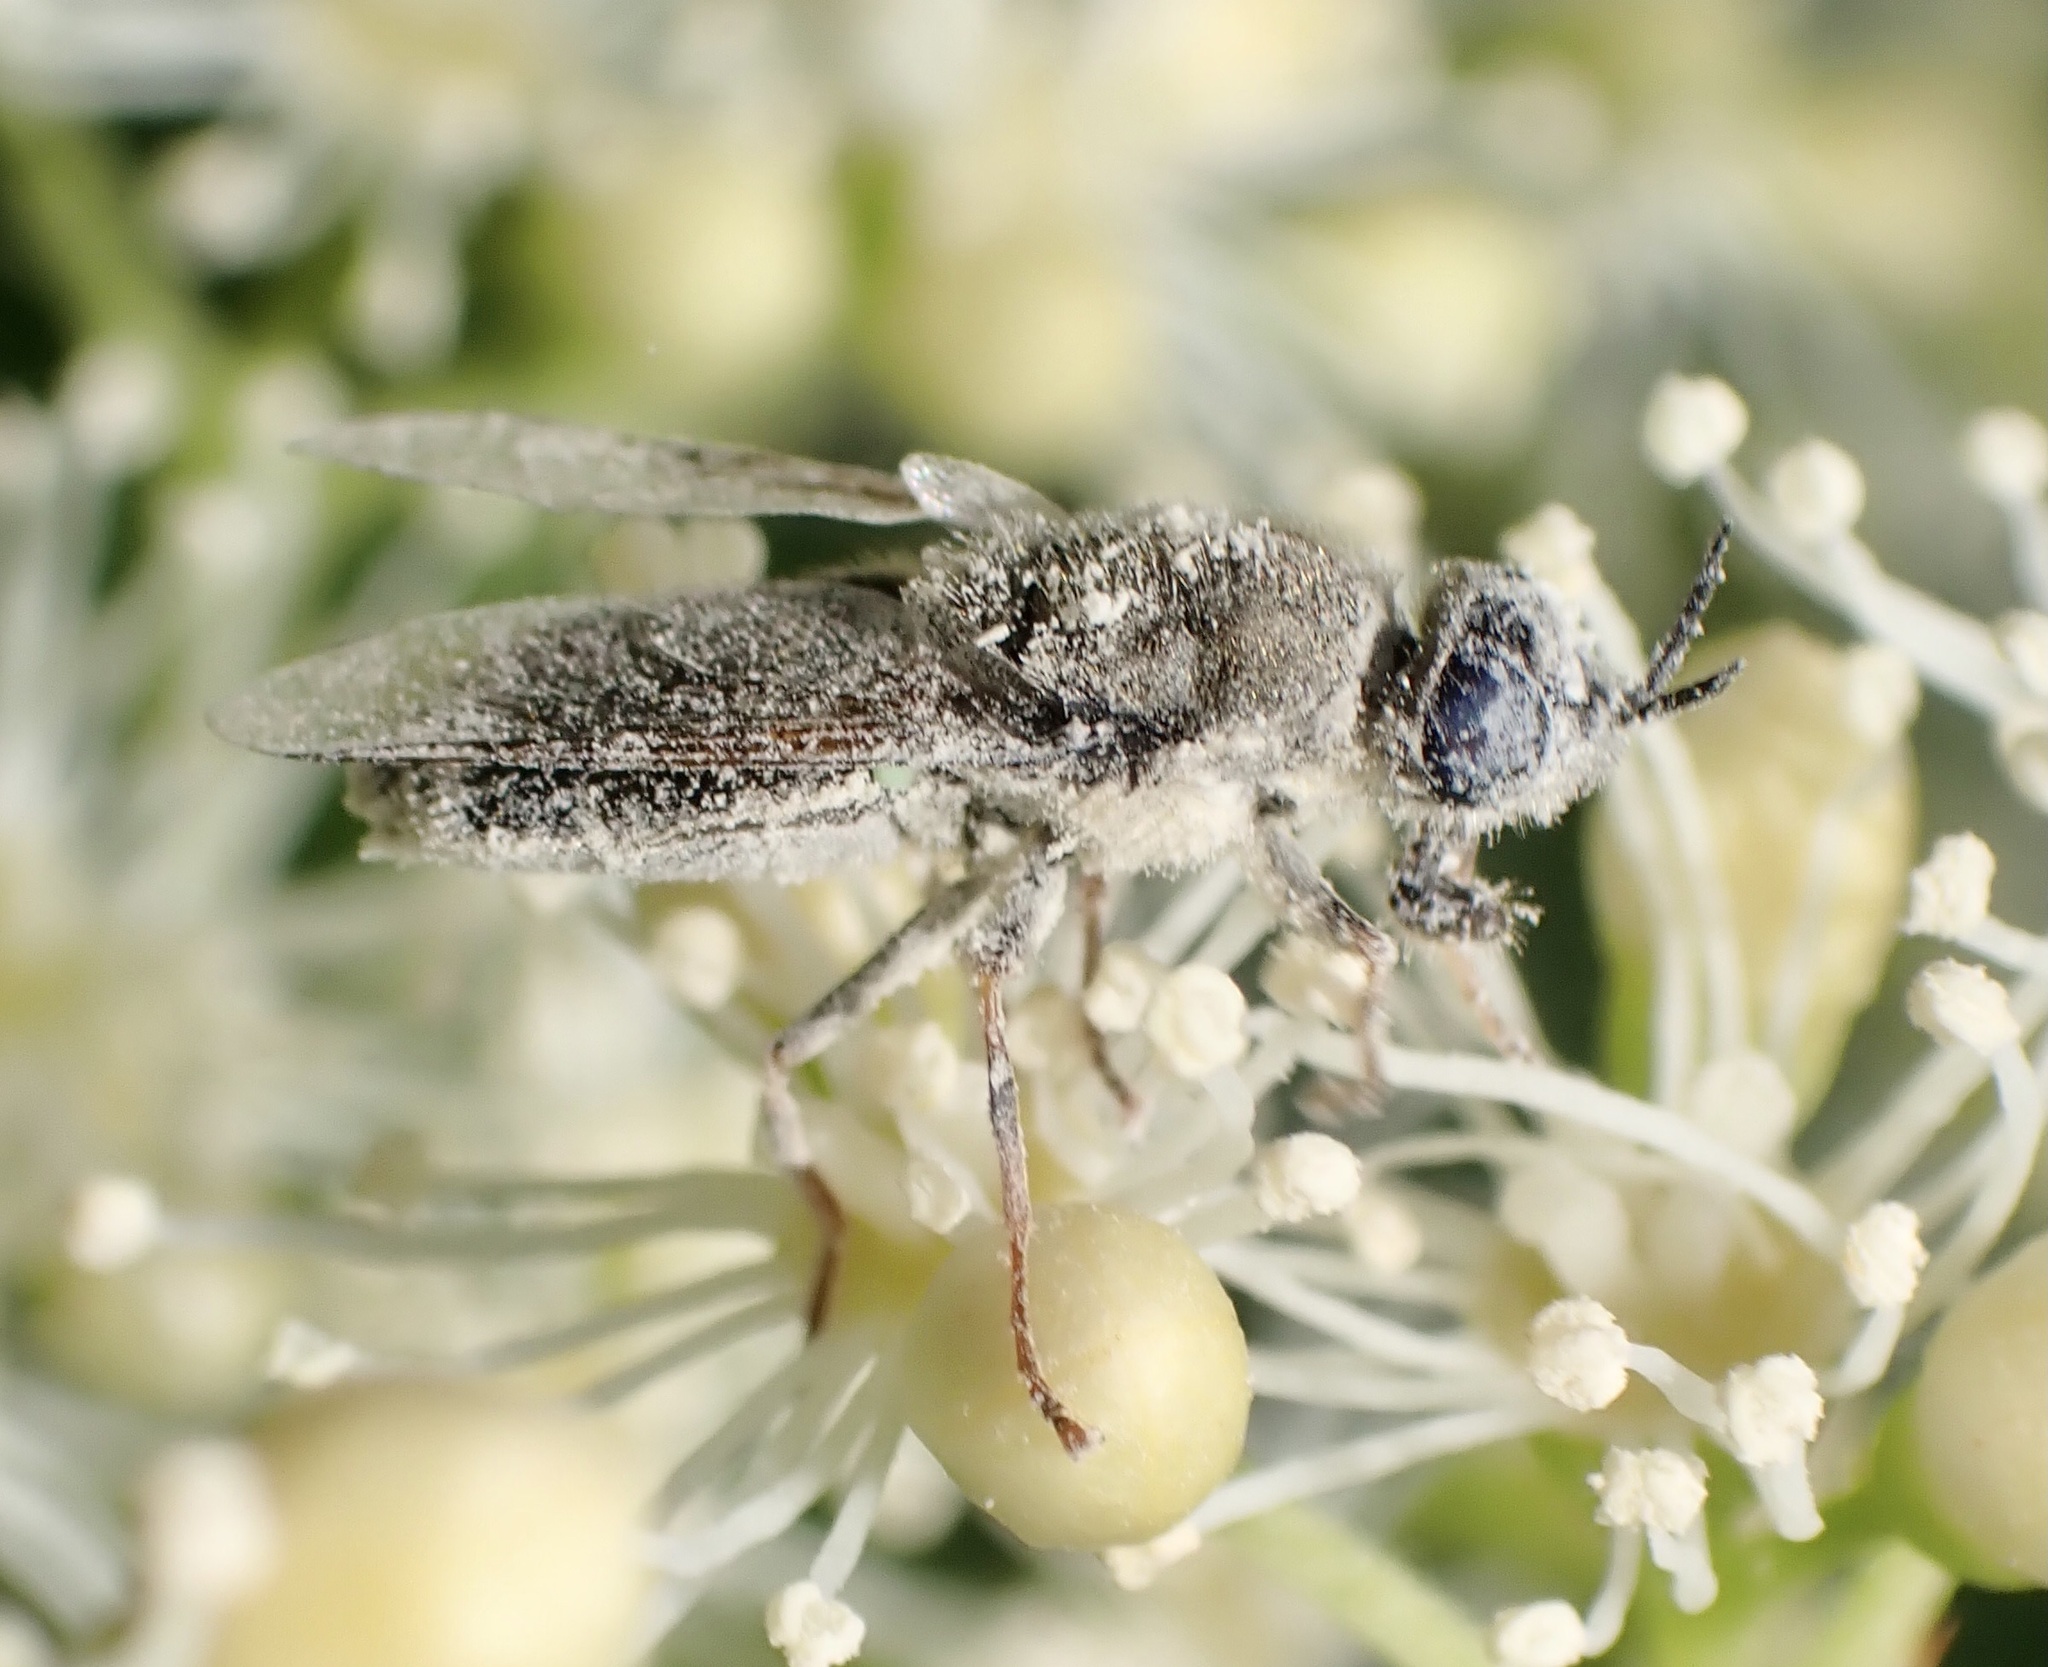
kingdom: Animalia
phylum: Arthropoda
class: Insecta
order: Diptera
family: Stratiomyidae
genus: Odontomyia
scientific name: Odontomyia tigrina
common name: Black colonel
